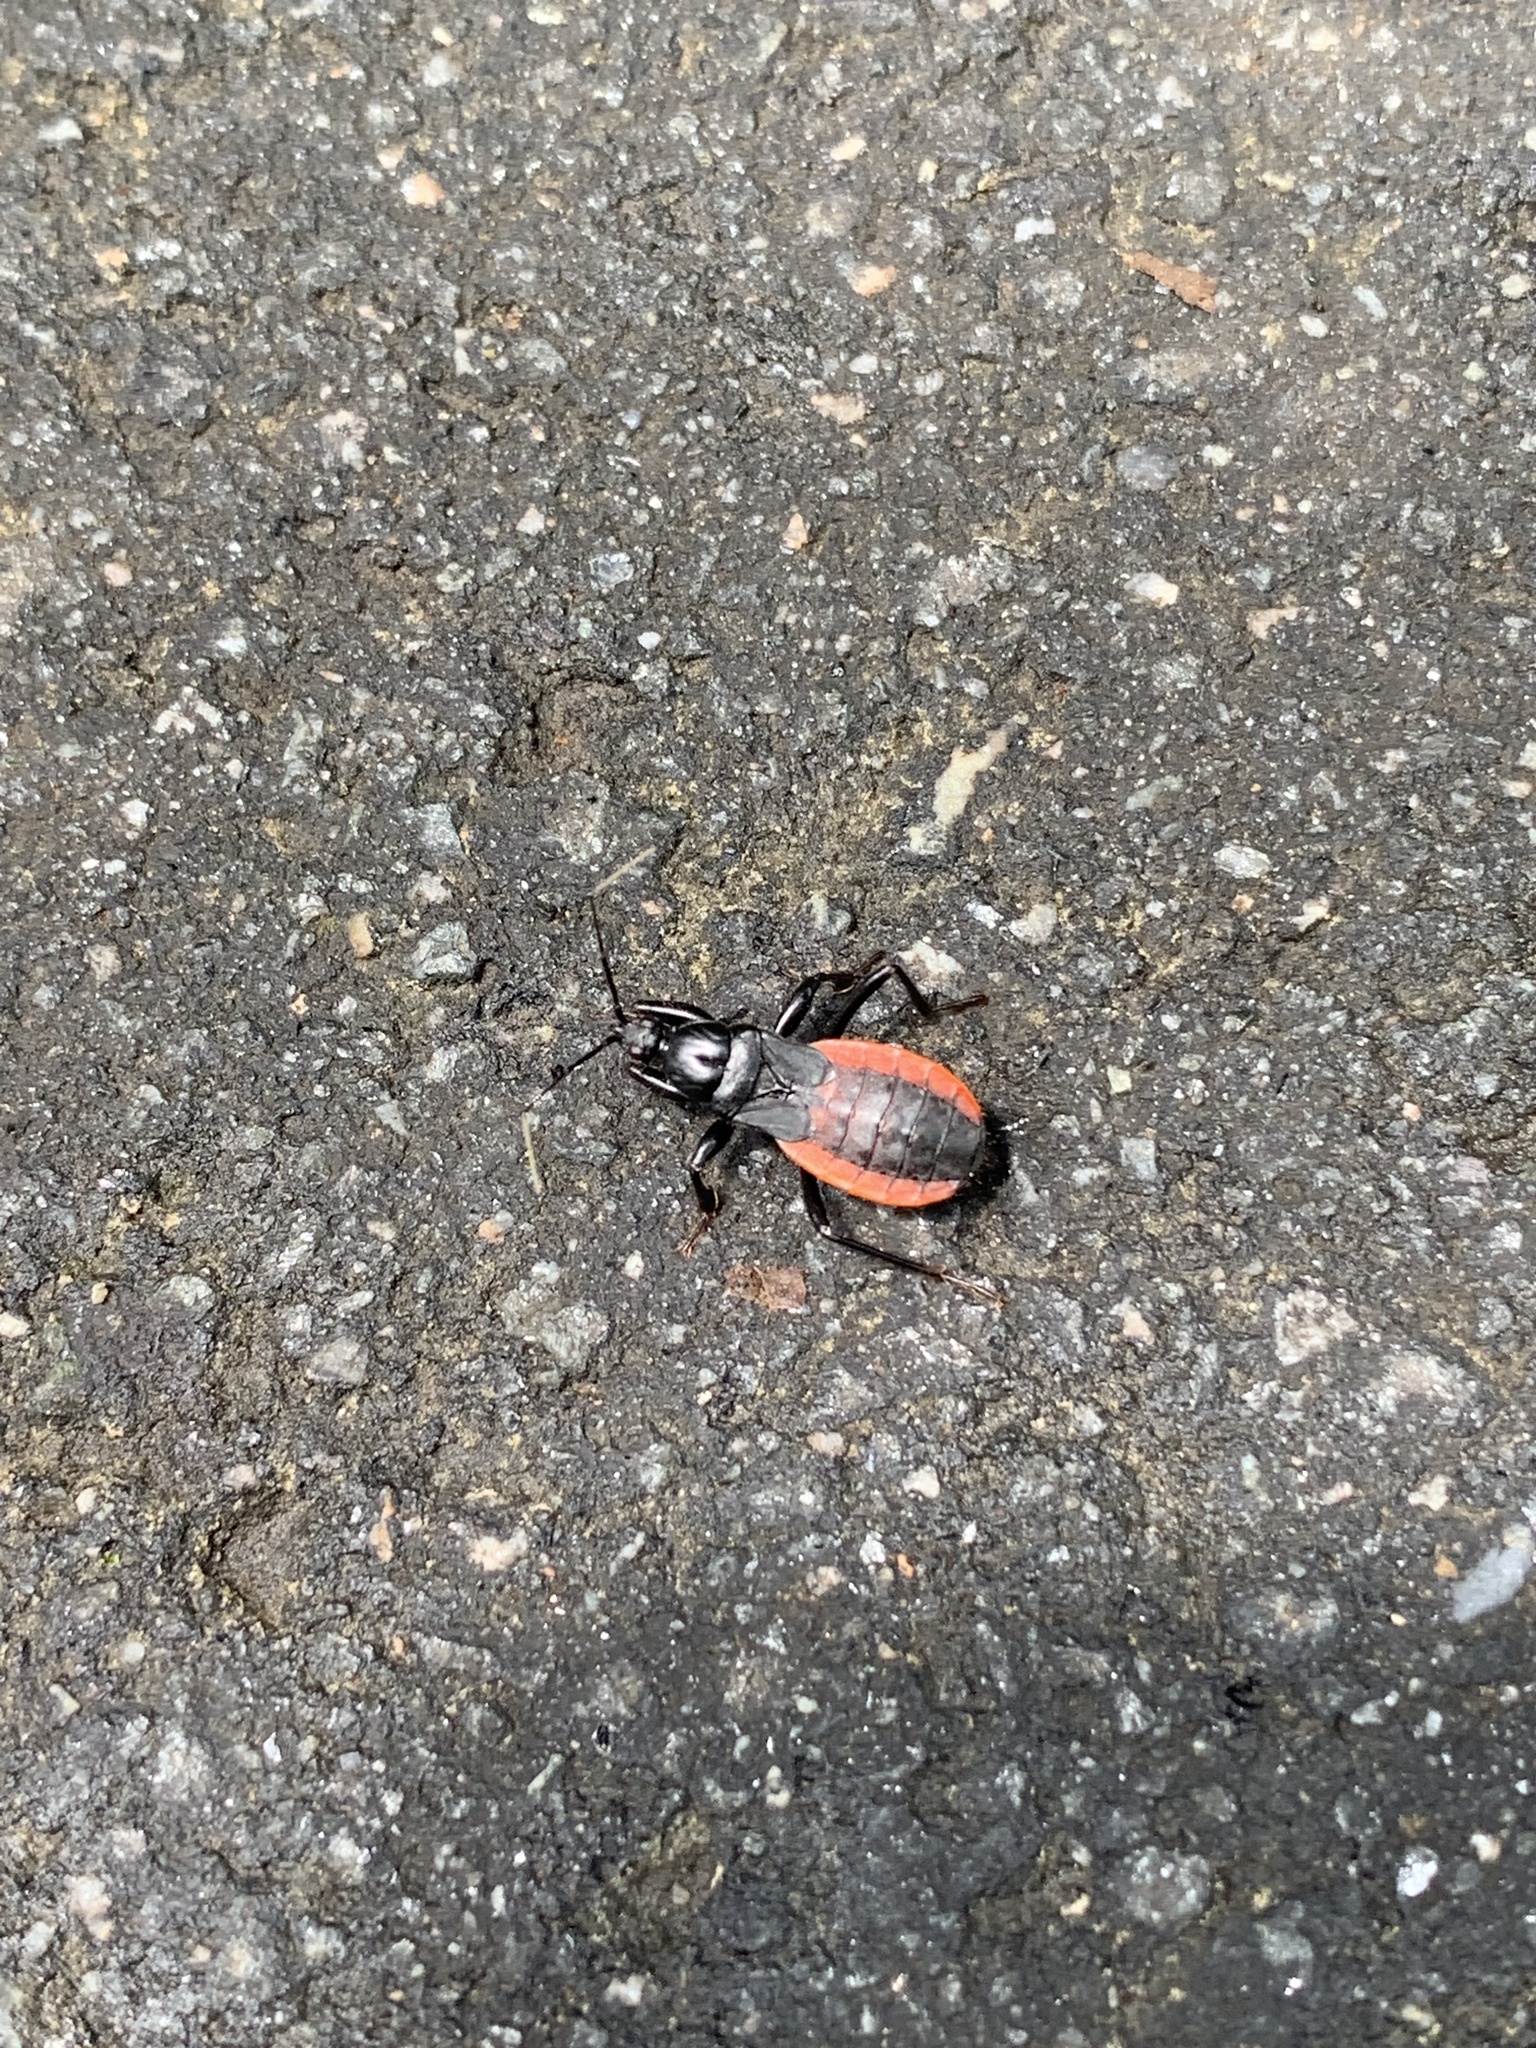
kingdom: Animalia
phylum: Arthropoda
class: Insecta
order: Hemiptera
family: Reduviidae
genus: Melanolestes
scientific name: Melanolestes picipes
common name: Assassin bug
